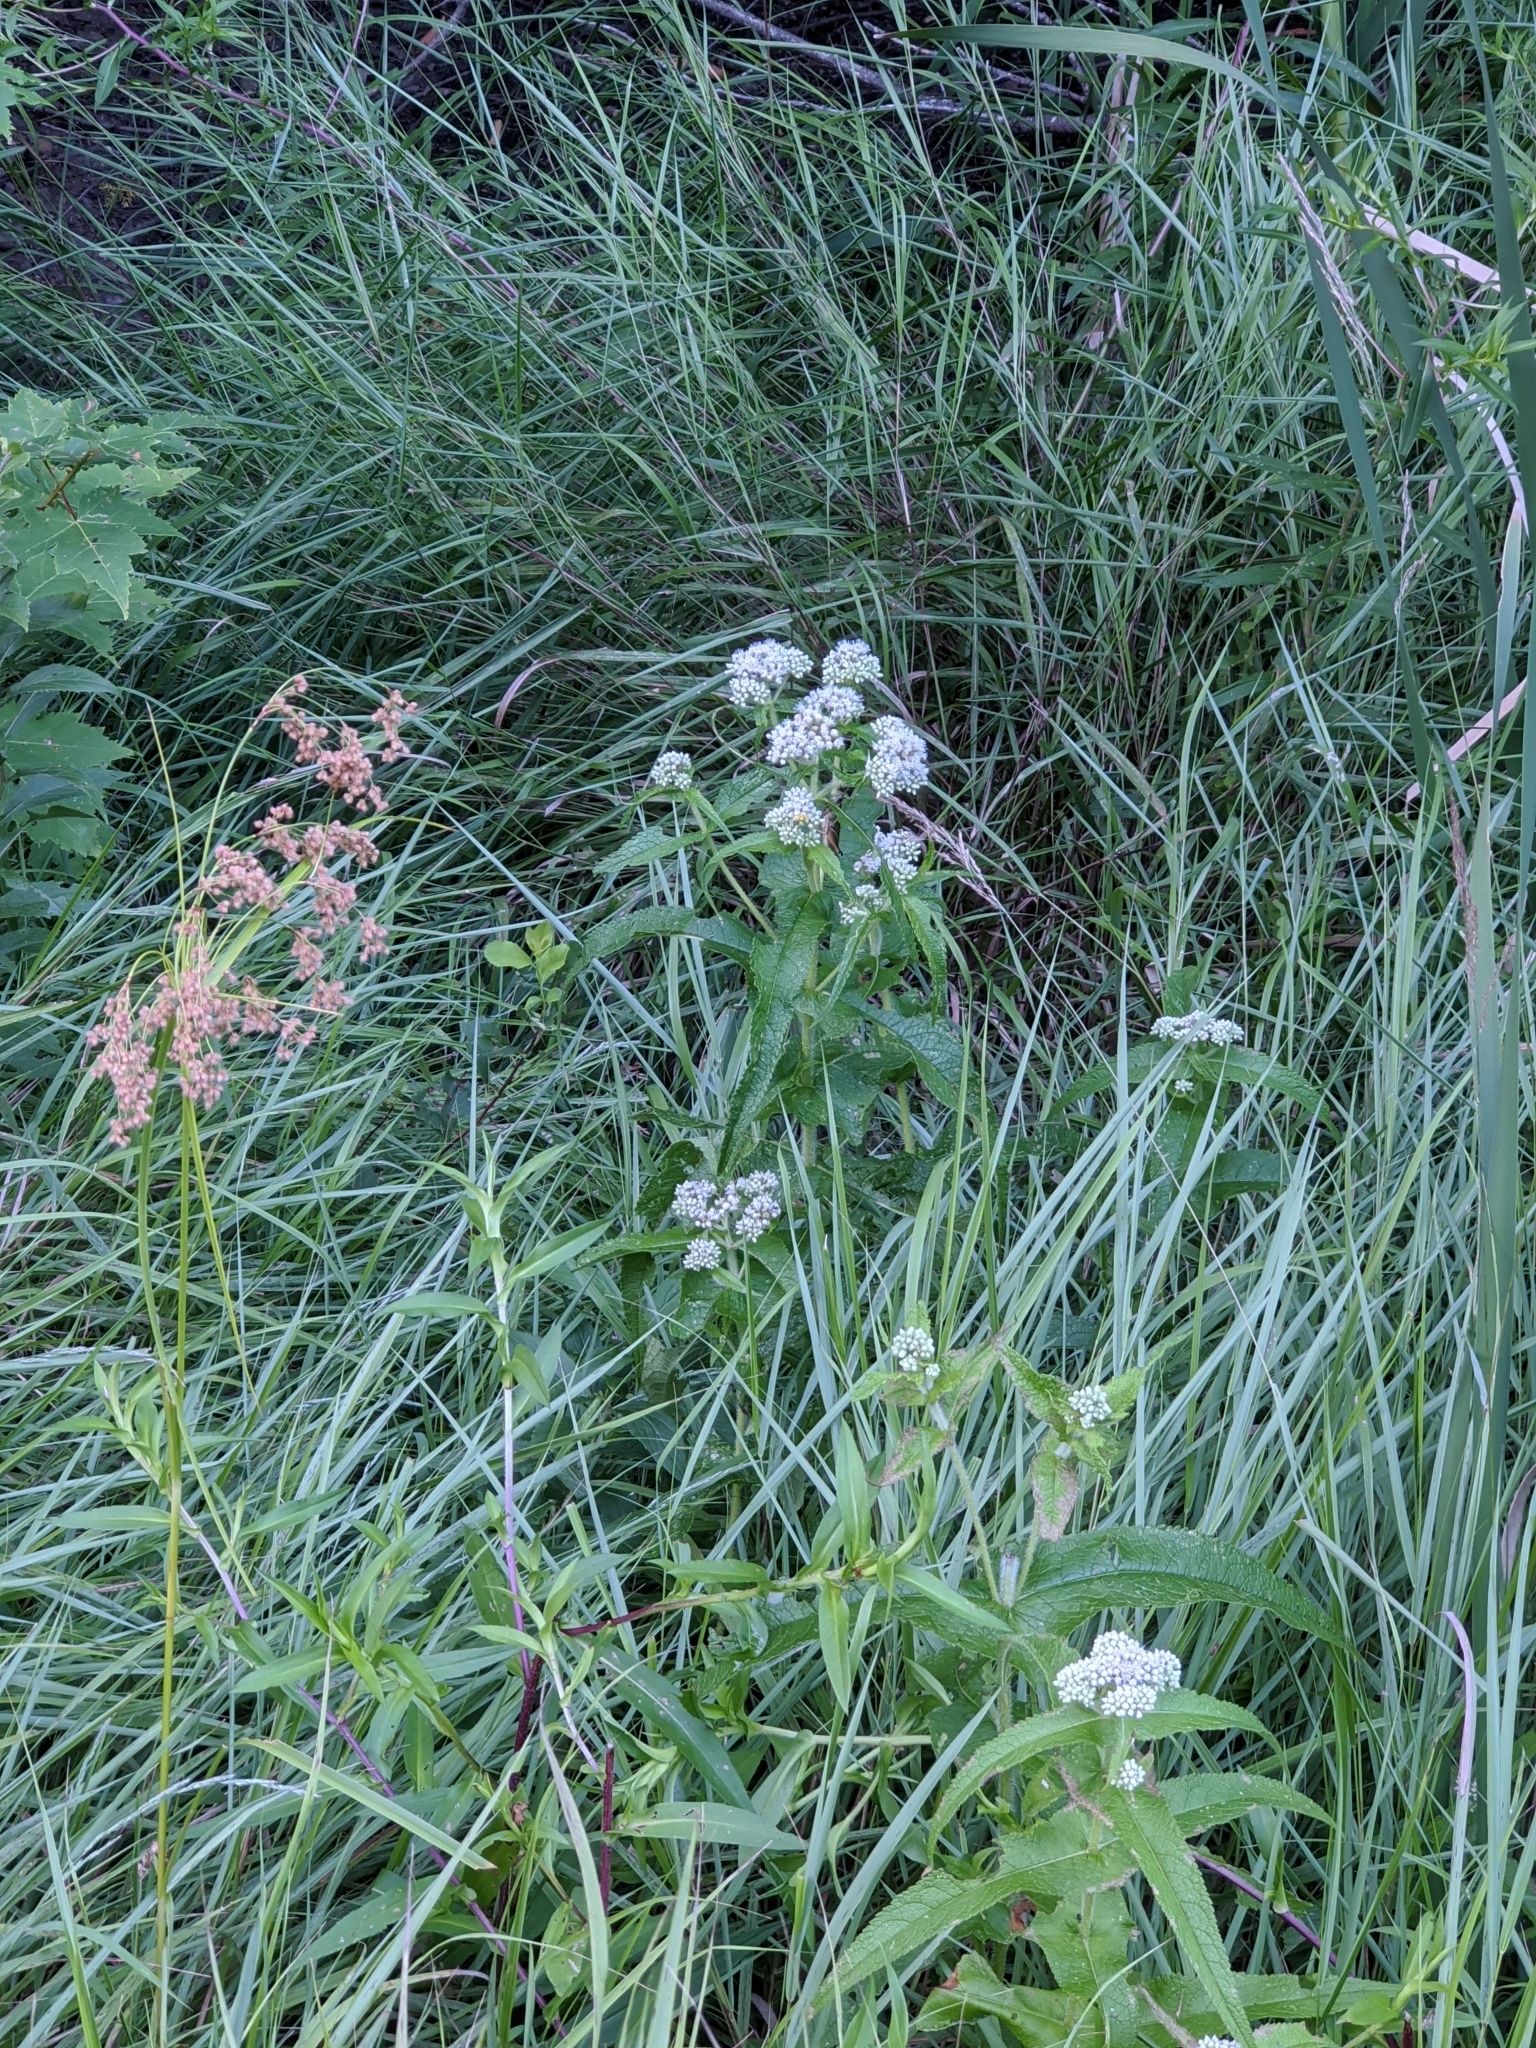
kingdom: Plantae
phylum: Tracheophyta
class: Magnoliopsida
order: Asterales
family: Asteraceae
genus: Eupatorium
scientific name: Eupatorium perfoliatum
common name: Boneset
